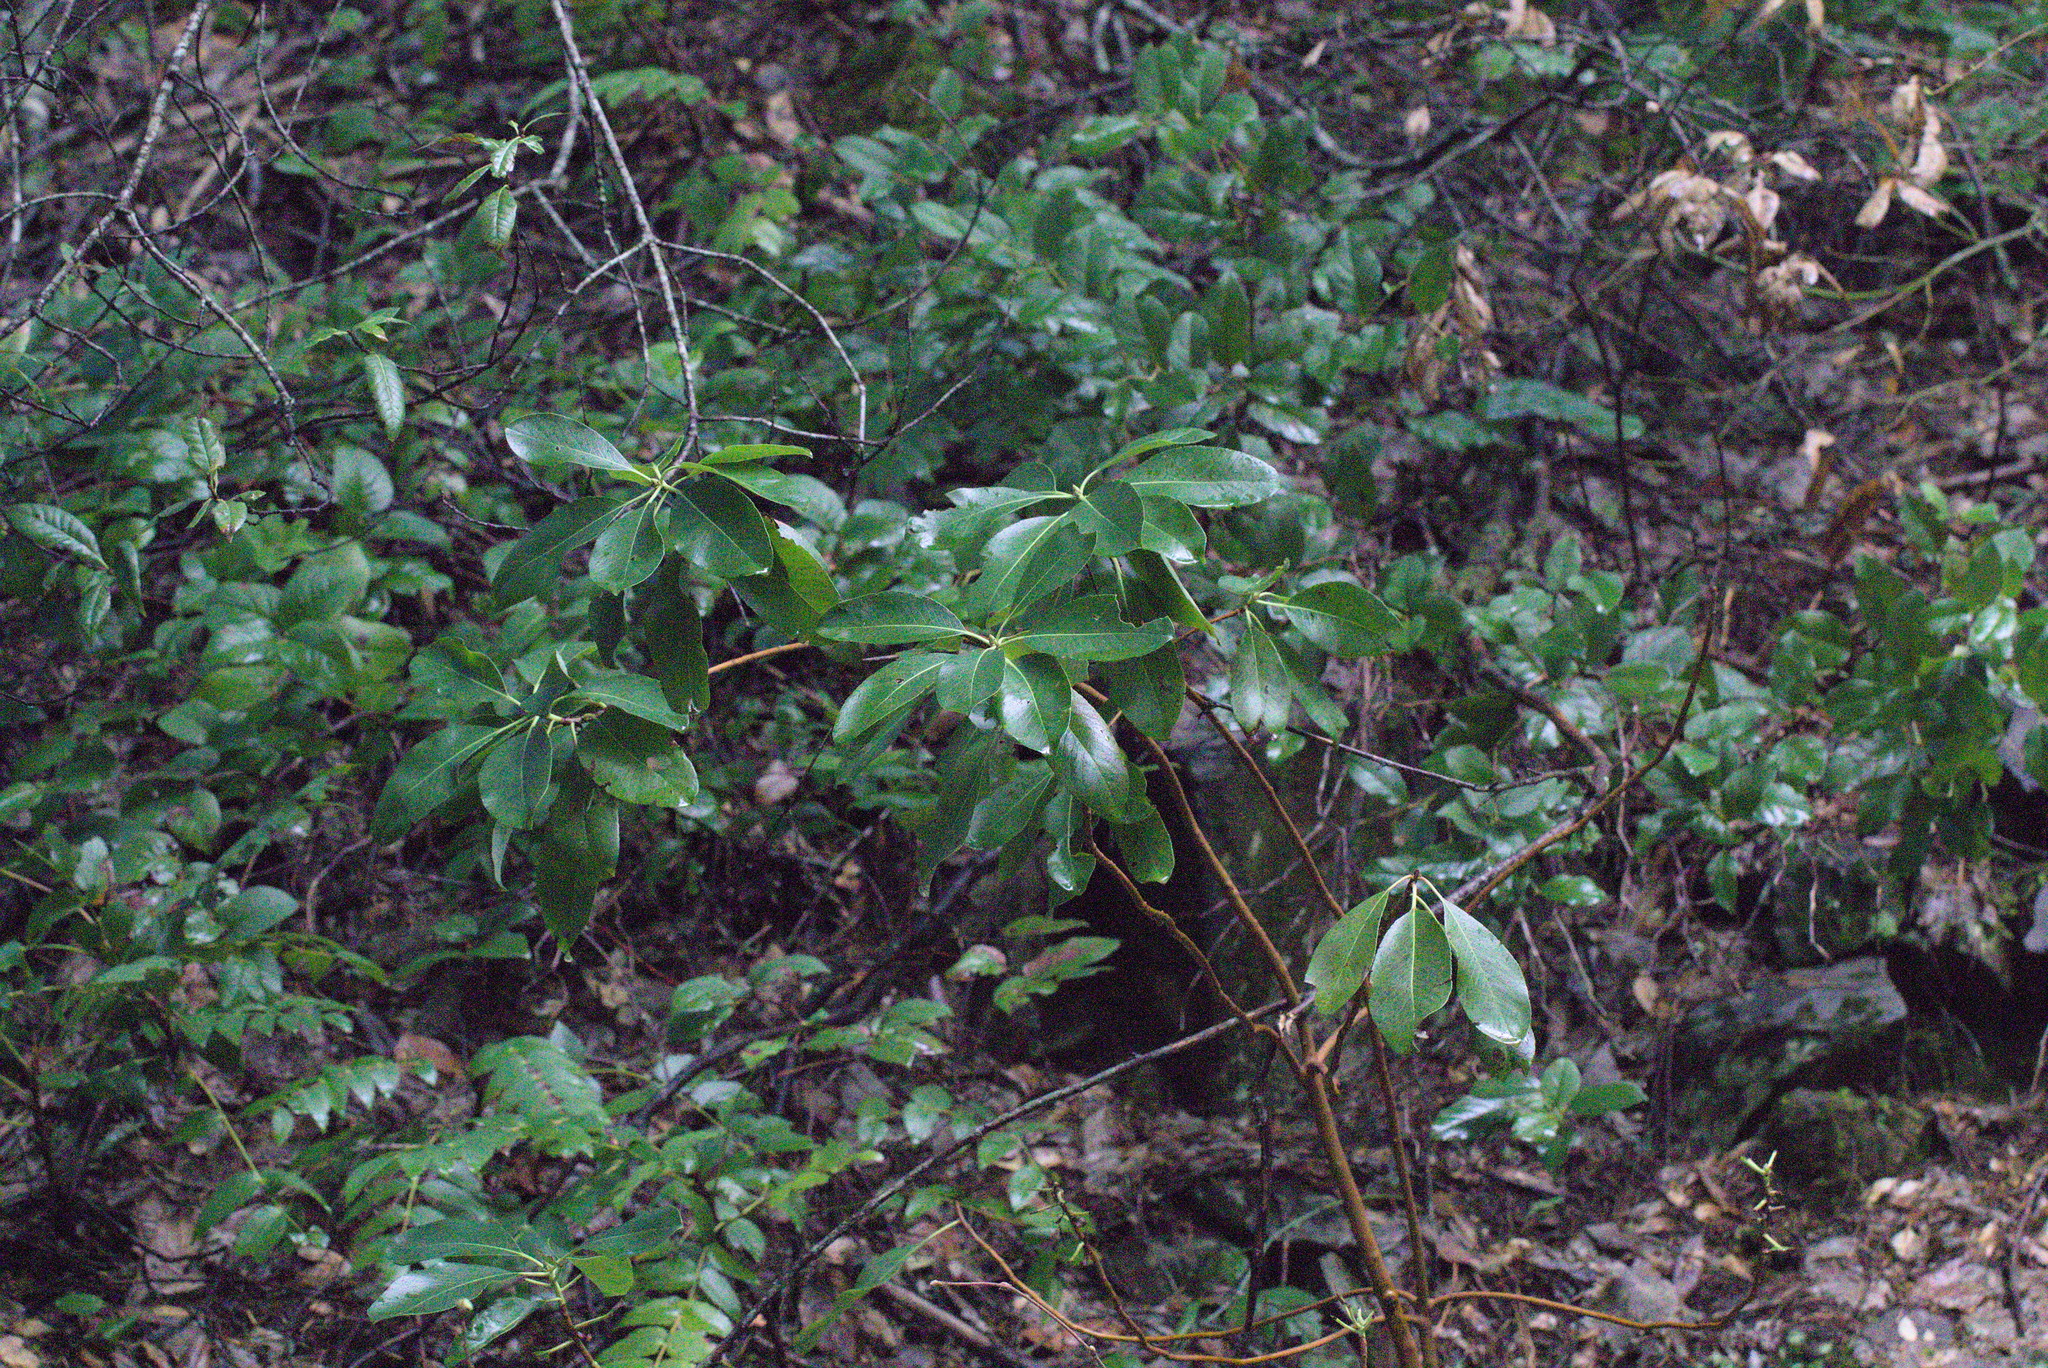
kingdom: Plantae
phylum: Tracheophyta
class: Magnoliopsida
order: Ericales
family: Ericaceae
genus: Arbutus
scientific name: Arbutus menziesii
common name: Pacific madrone
